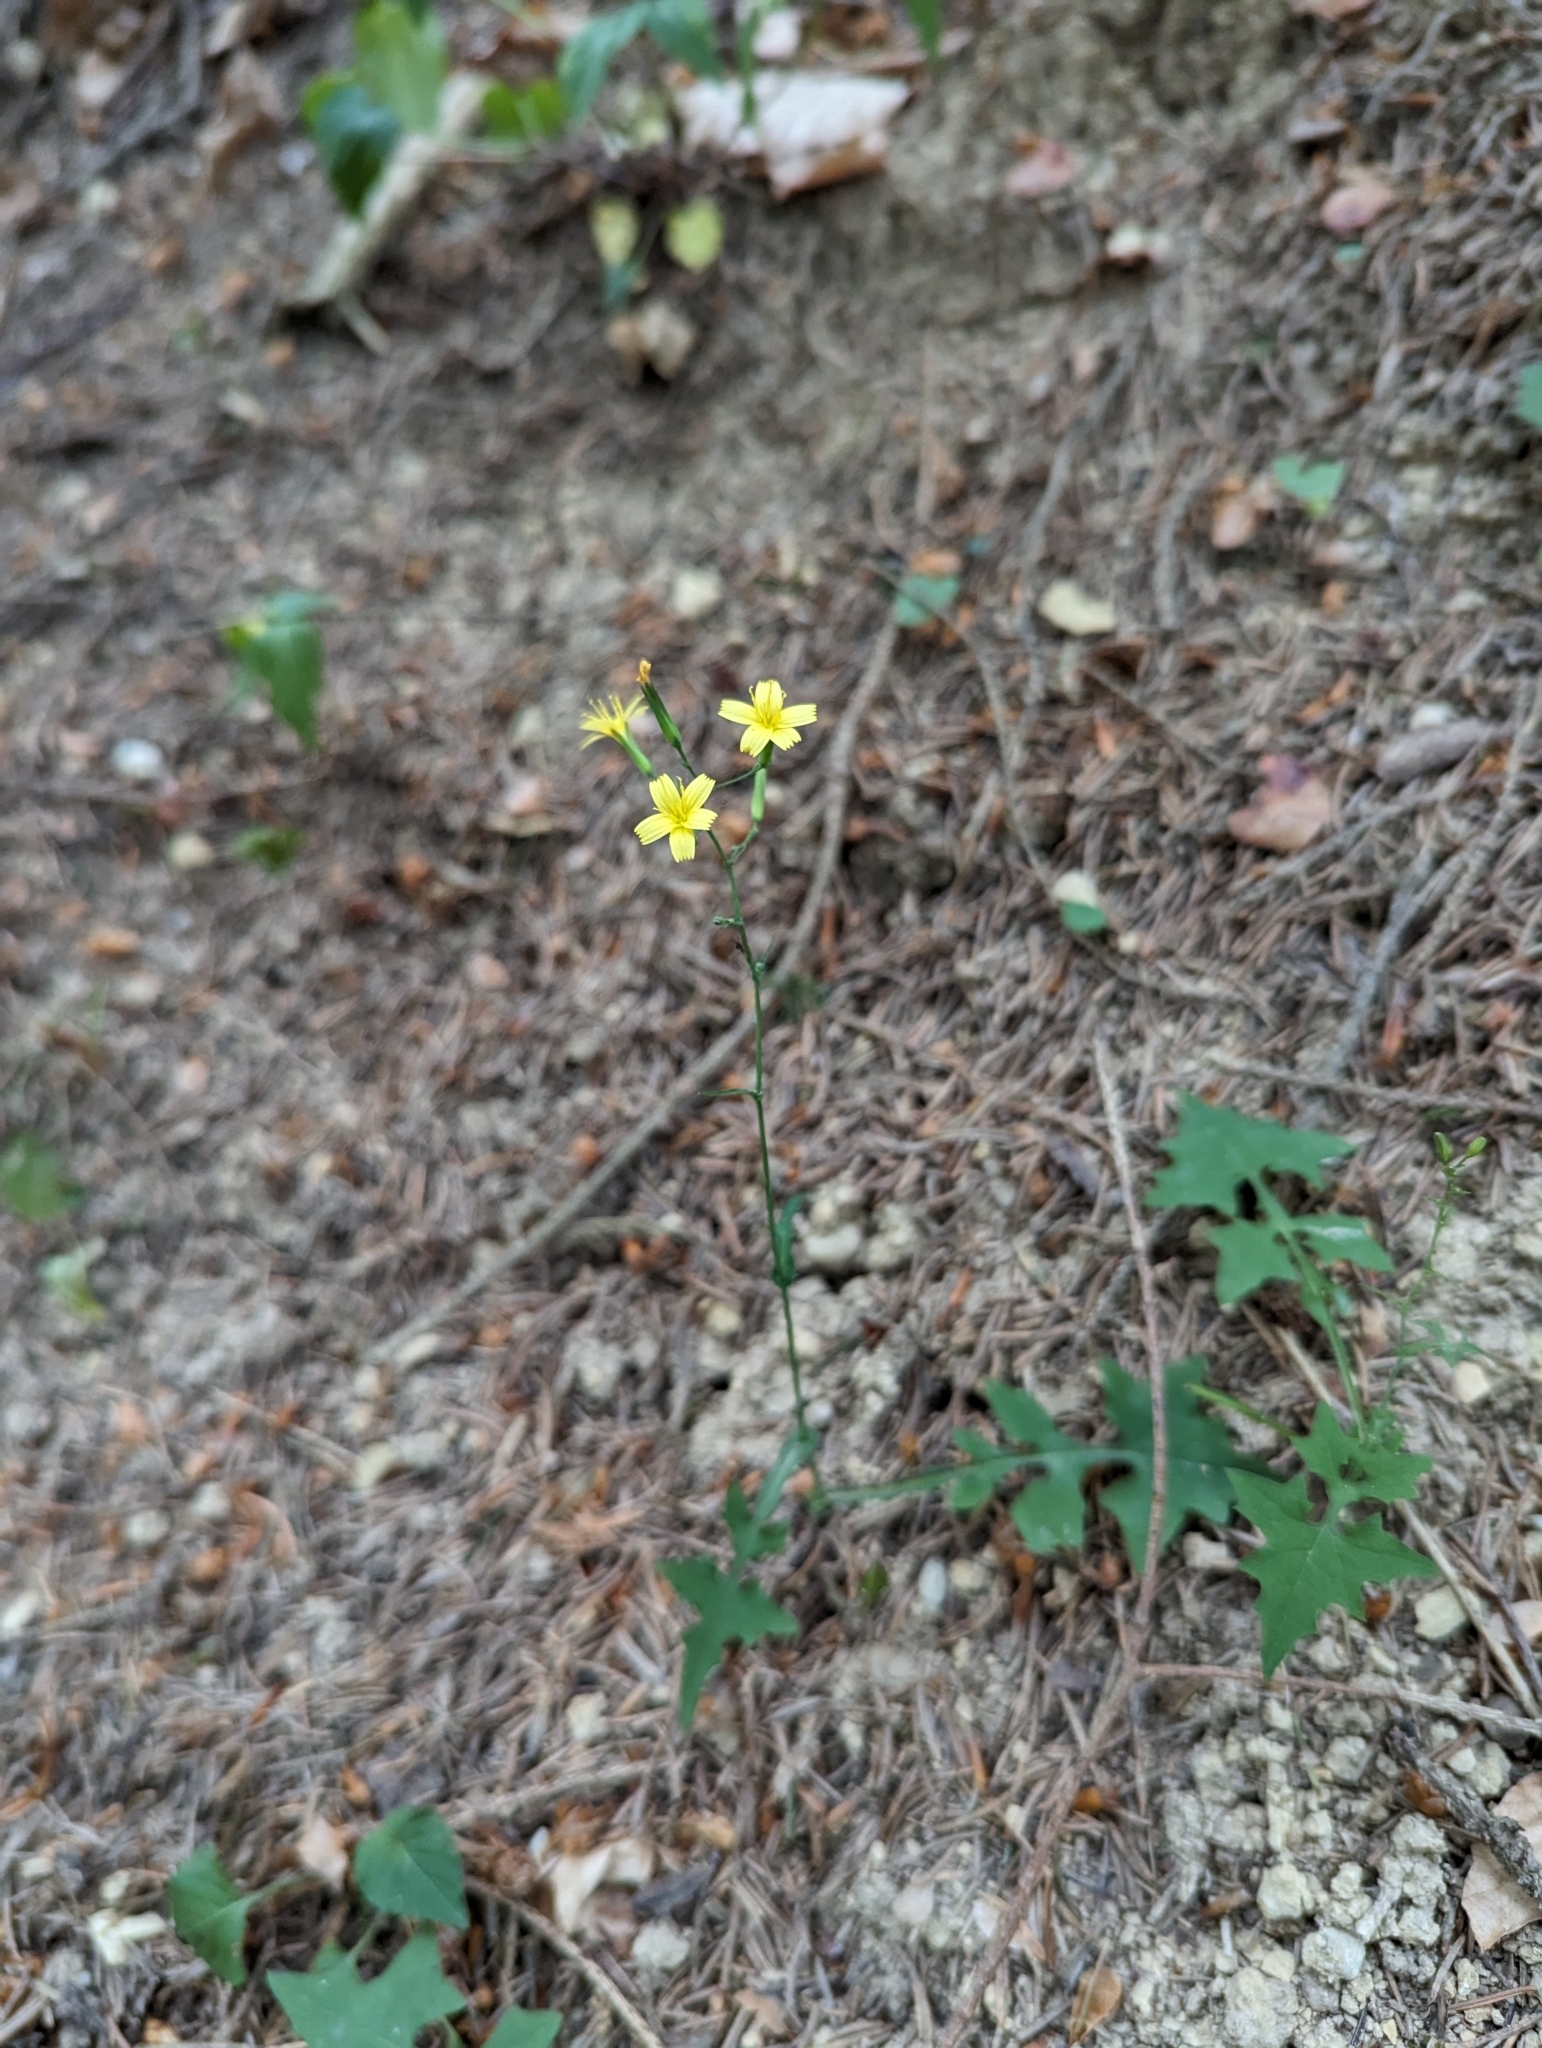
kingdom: Plantae
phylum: Tracheophyta
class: Magnoliopsida
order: Asterales
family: Asteraceae
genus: Mycelis
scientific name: Mycelis muralis
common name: Wall lettuce
